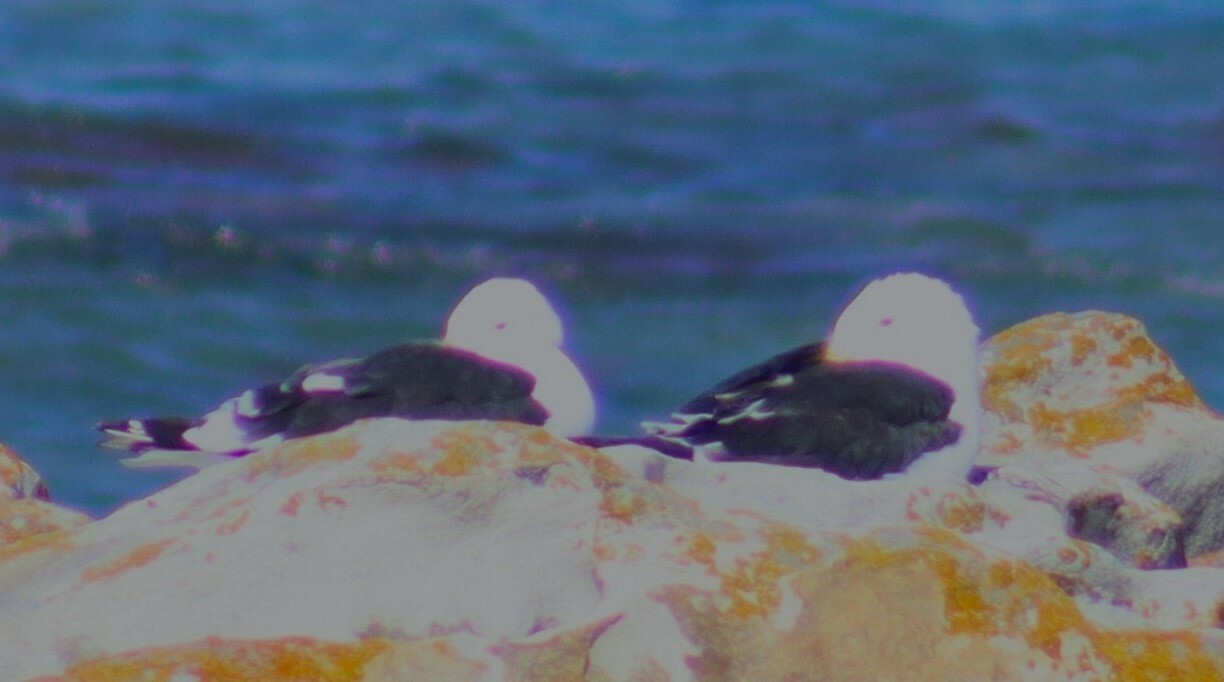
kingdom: Animalia
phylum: Chordata
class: Aves
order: Charadriiformes
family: Laridae
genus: Larus
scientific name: Larus dominicanus
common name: Kelp gull
